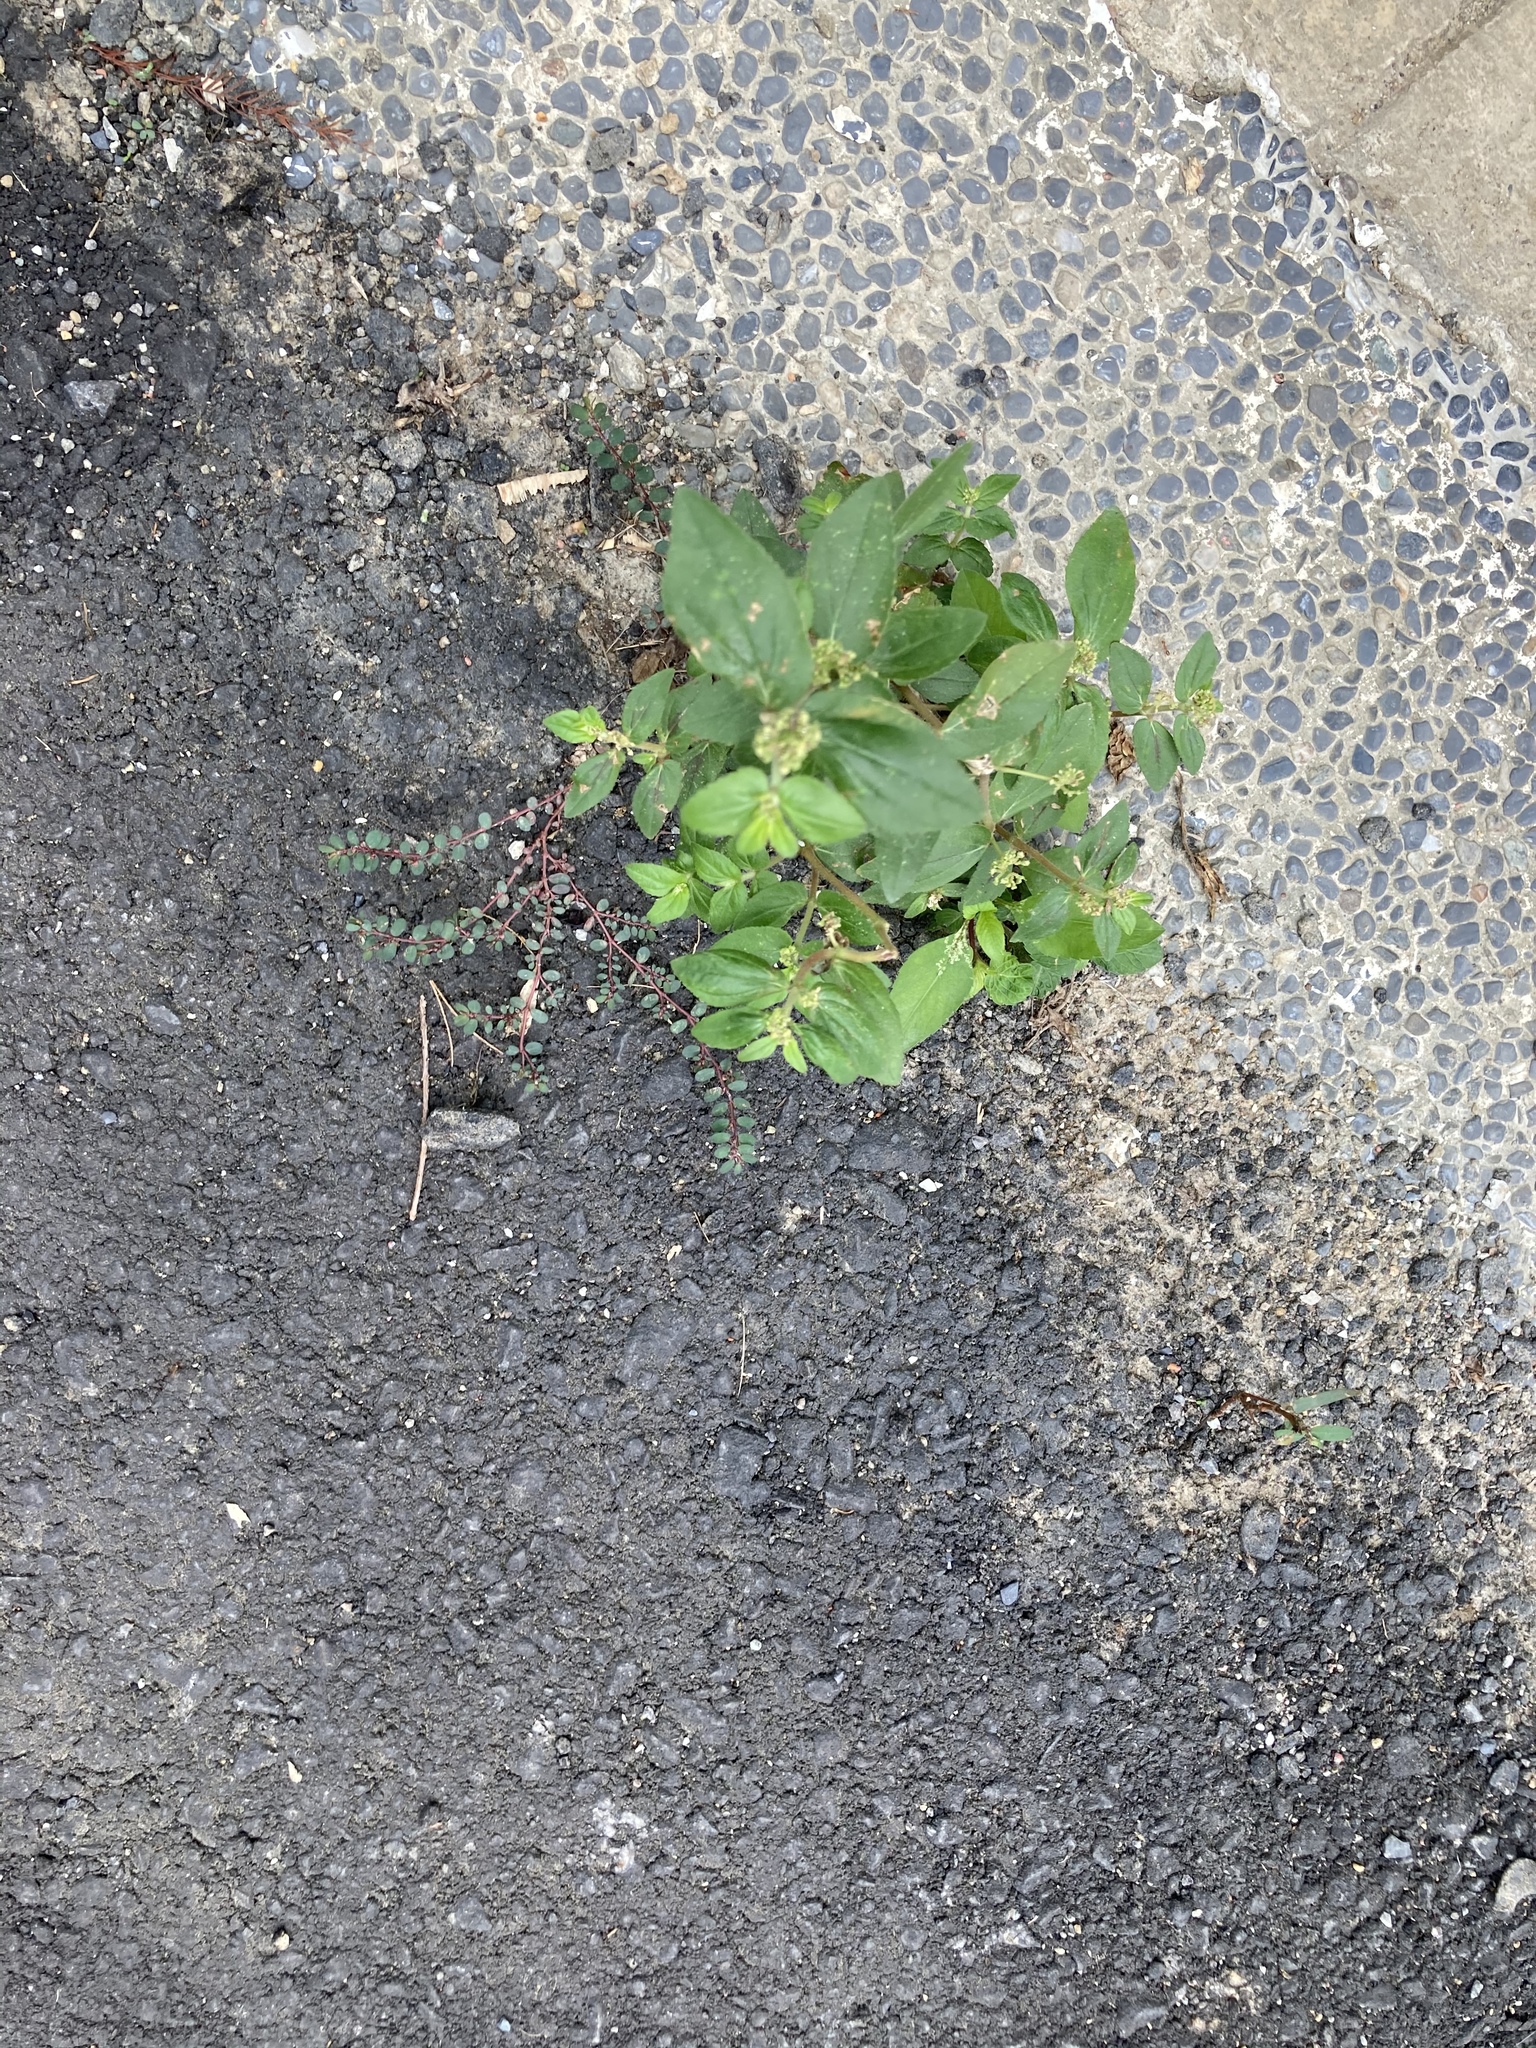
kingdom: Plantae
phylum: Tracheophyta
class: Magnoliopsida
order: Malpighiales
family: Euphorbiaceae
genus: Euphorbia
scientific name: Euphorbia hirta
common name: Pillpod sandmat
